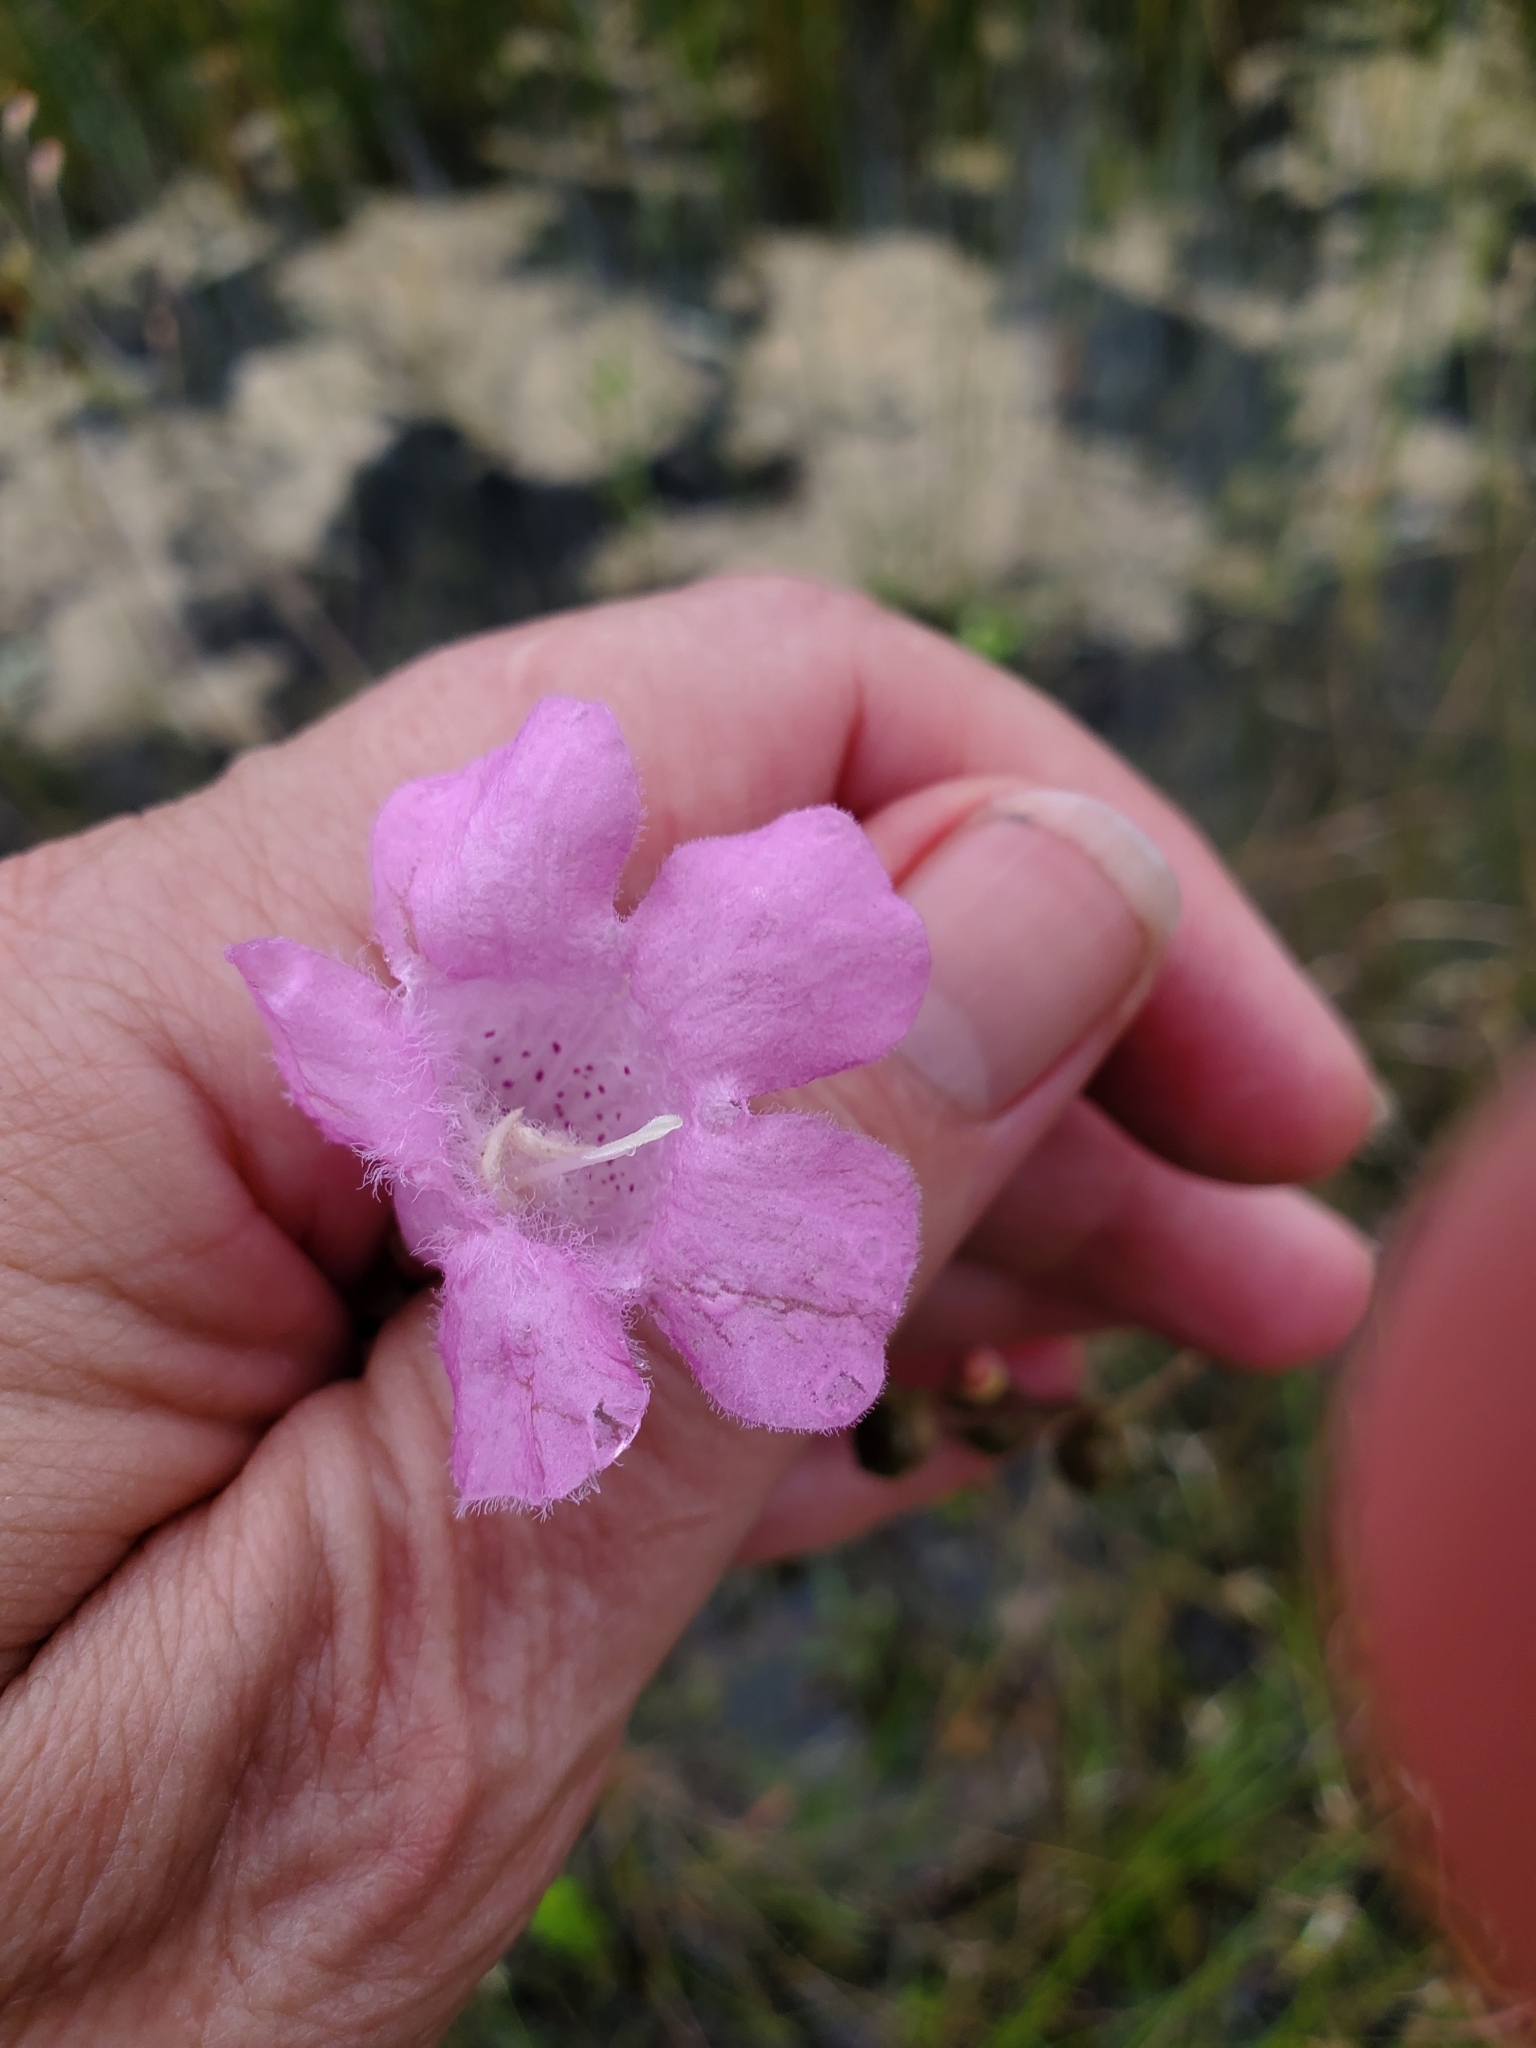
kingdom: Plantae
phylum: Tracheophyta
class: Magnoliopsida
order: Lamiales
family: Orobanchaceae
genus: Agalinis
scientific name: Agalinis linifolia
